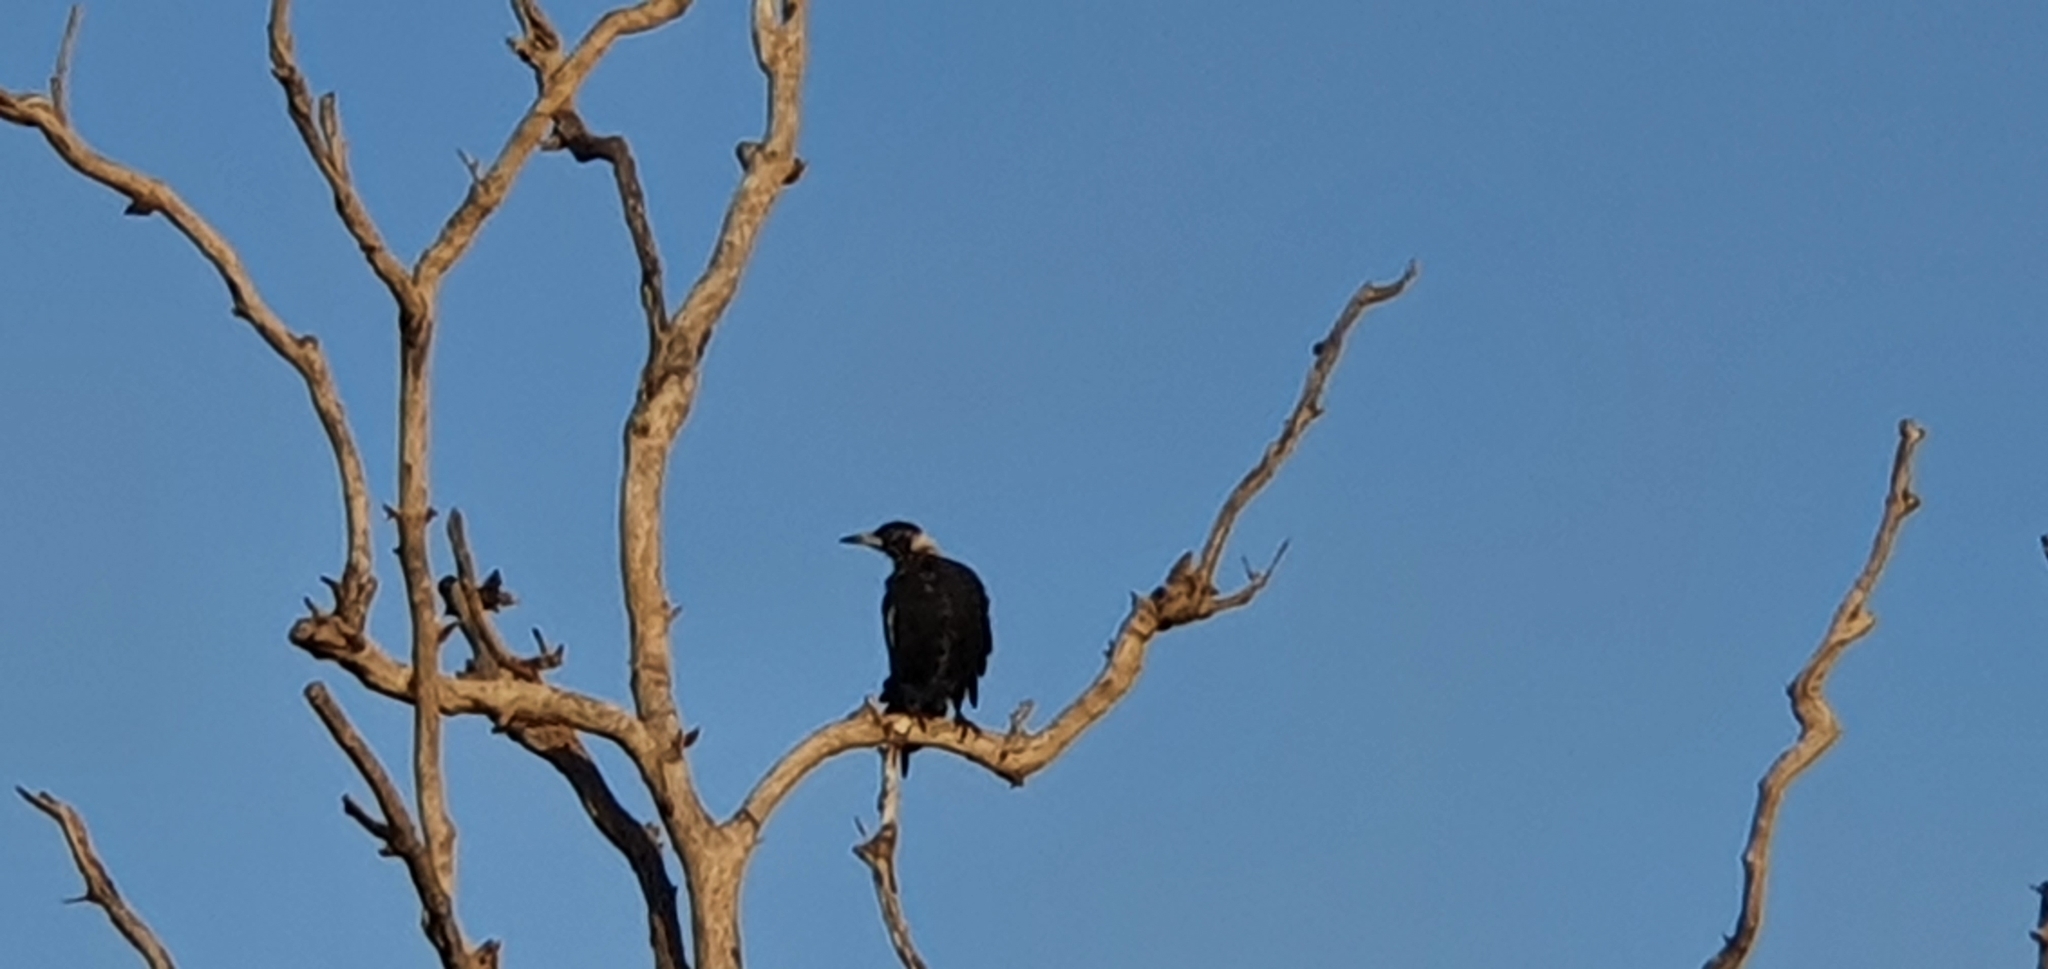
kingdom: Animalia
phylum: Chordata
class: Aves
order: Passeriformes
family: Cracticidae
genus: Gymnorhina
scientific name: Gymnorhina tibicen
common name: Australian magpie
